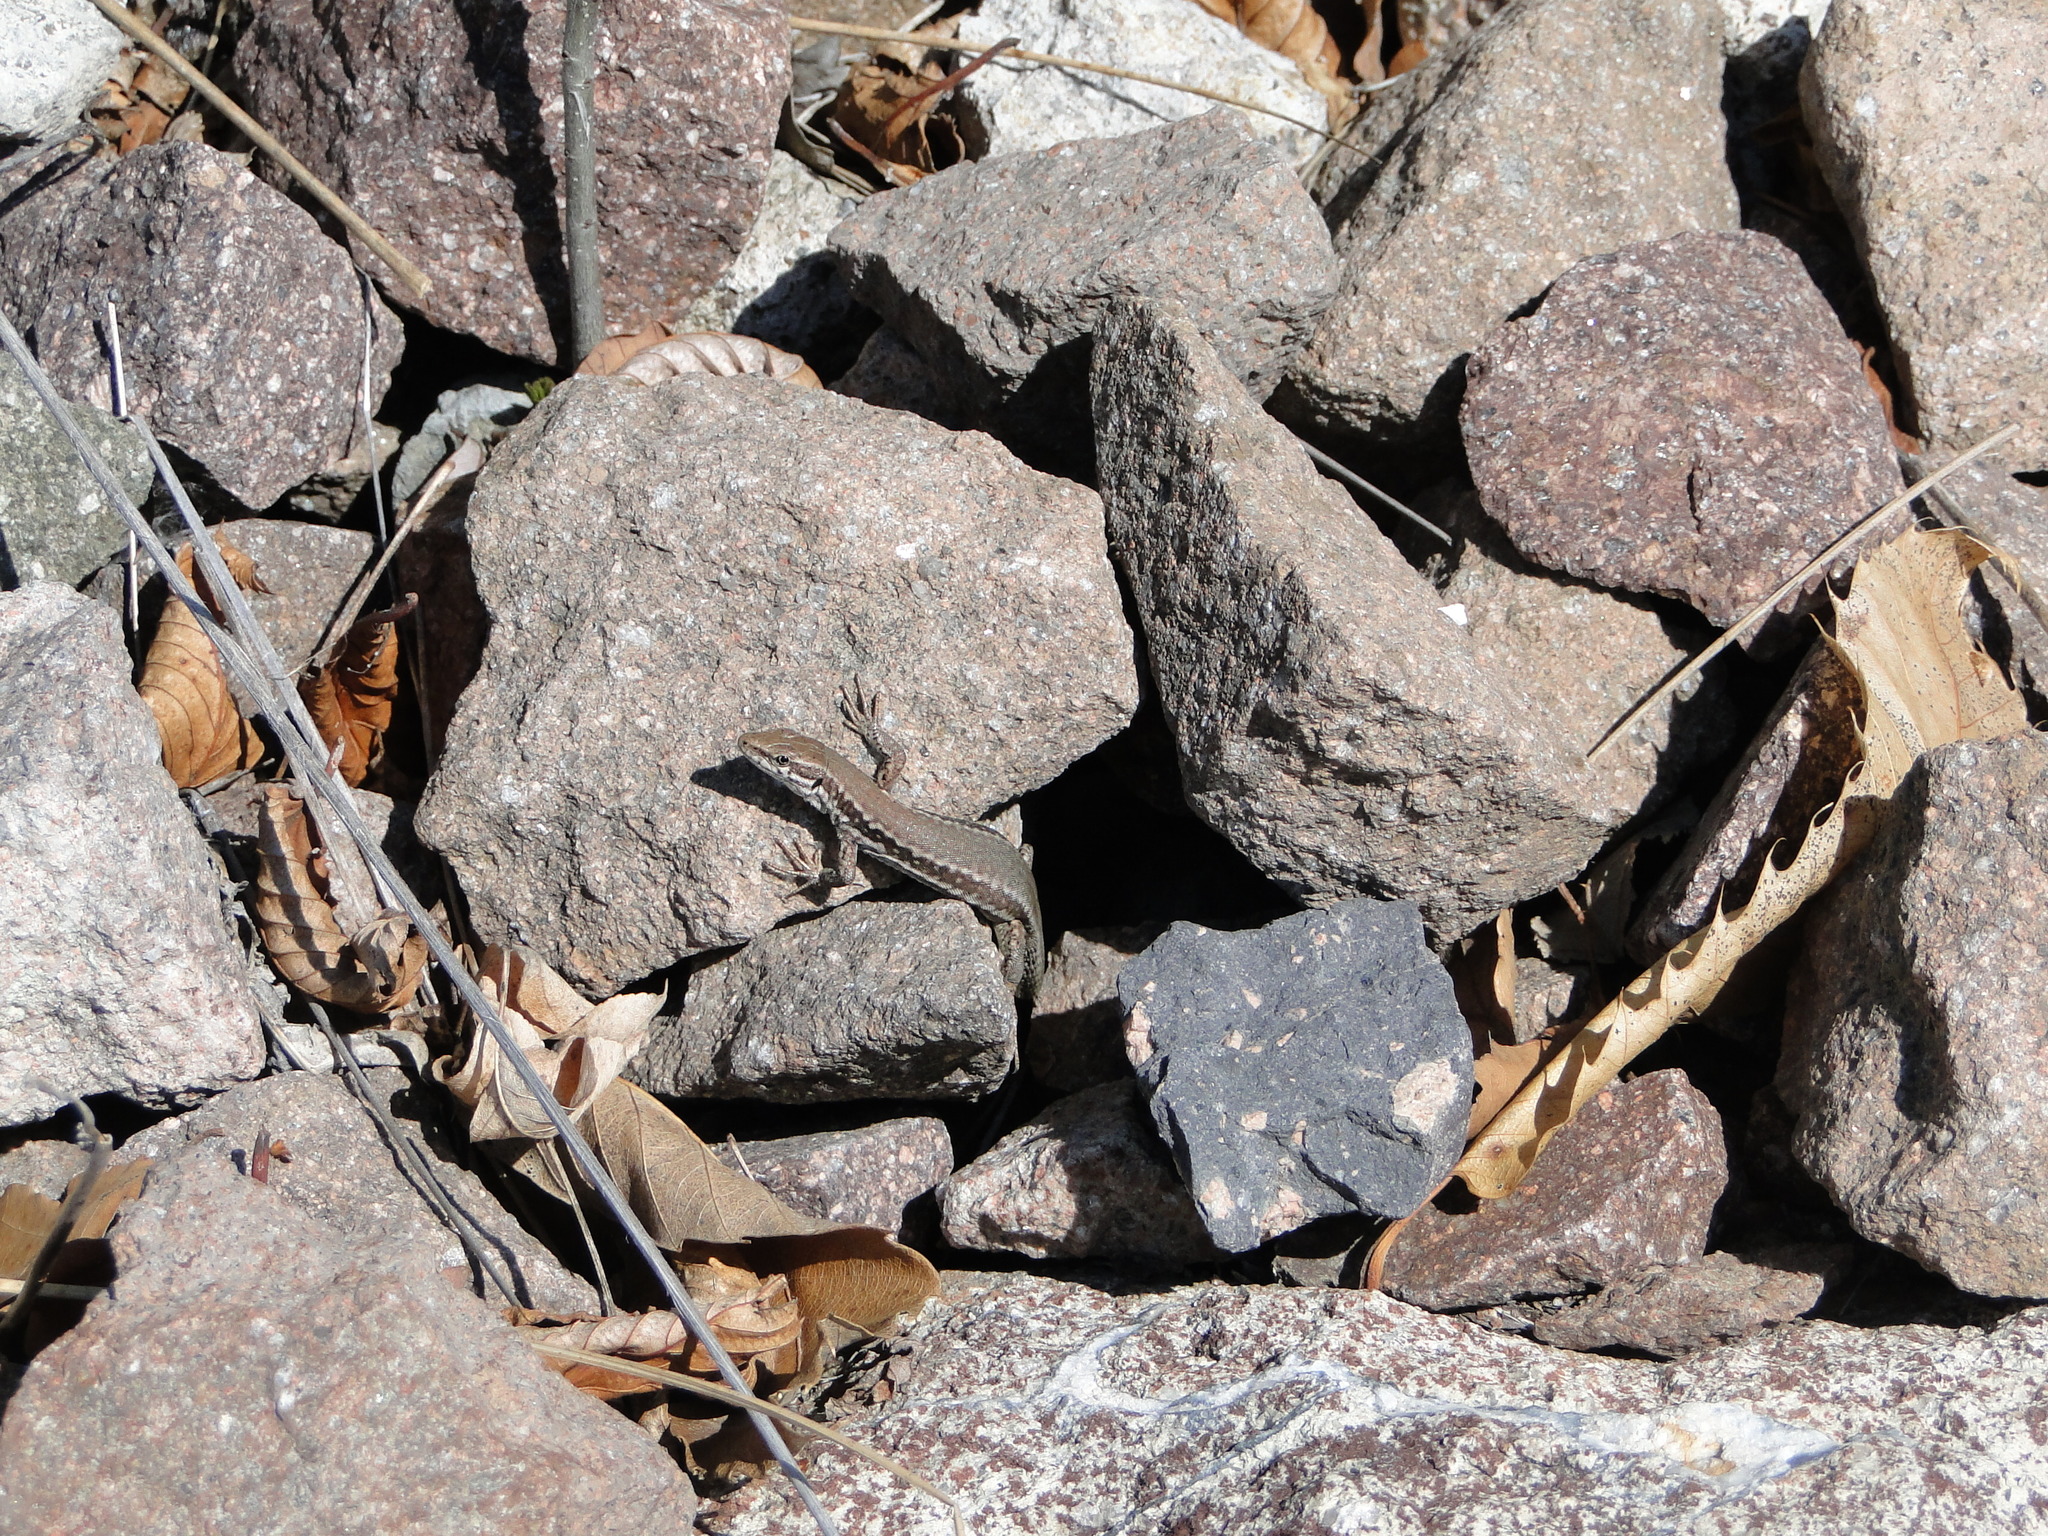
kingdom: Animalia
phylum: Chordata
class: Squamata
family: Lacertidae
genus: Podarcis
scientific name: Podarcis muralis
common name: Common wall lizard
